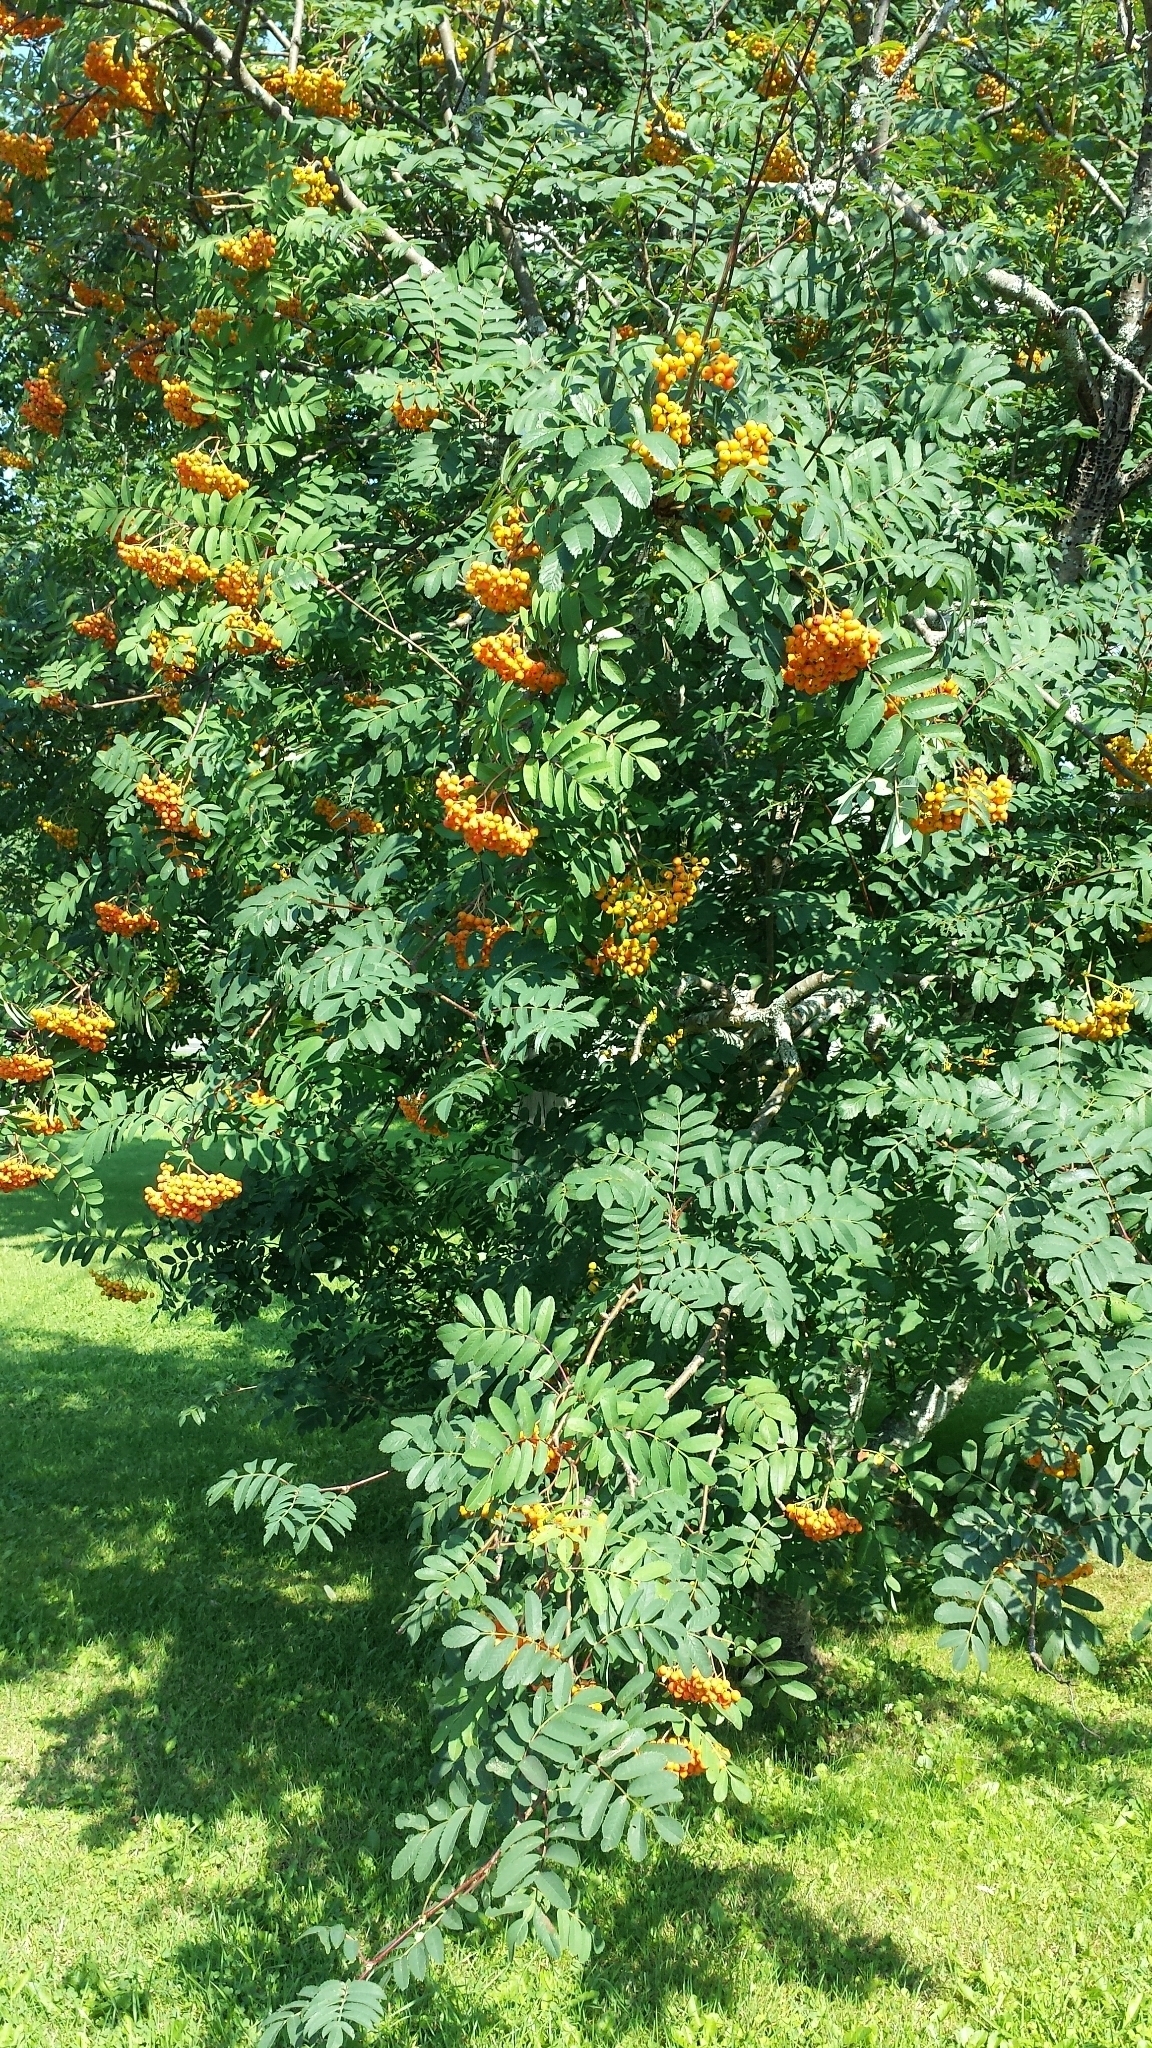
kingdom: Plantae
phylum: Tracheophyta
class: Magnoliopsida
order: Rosales
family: Rosaceae
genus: Sorbus
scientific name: Sorbus aucuparia
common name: Rowan
